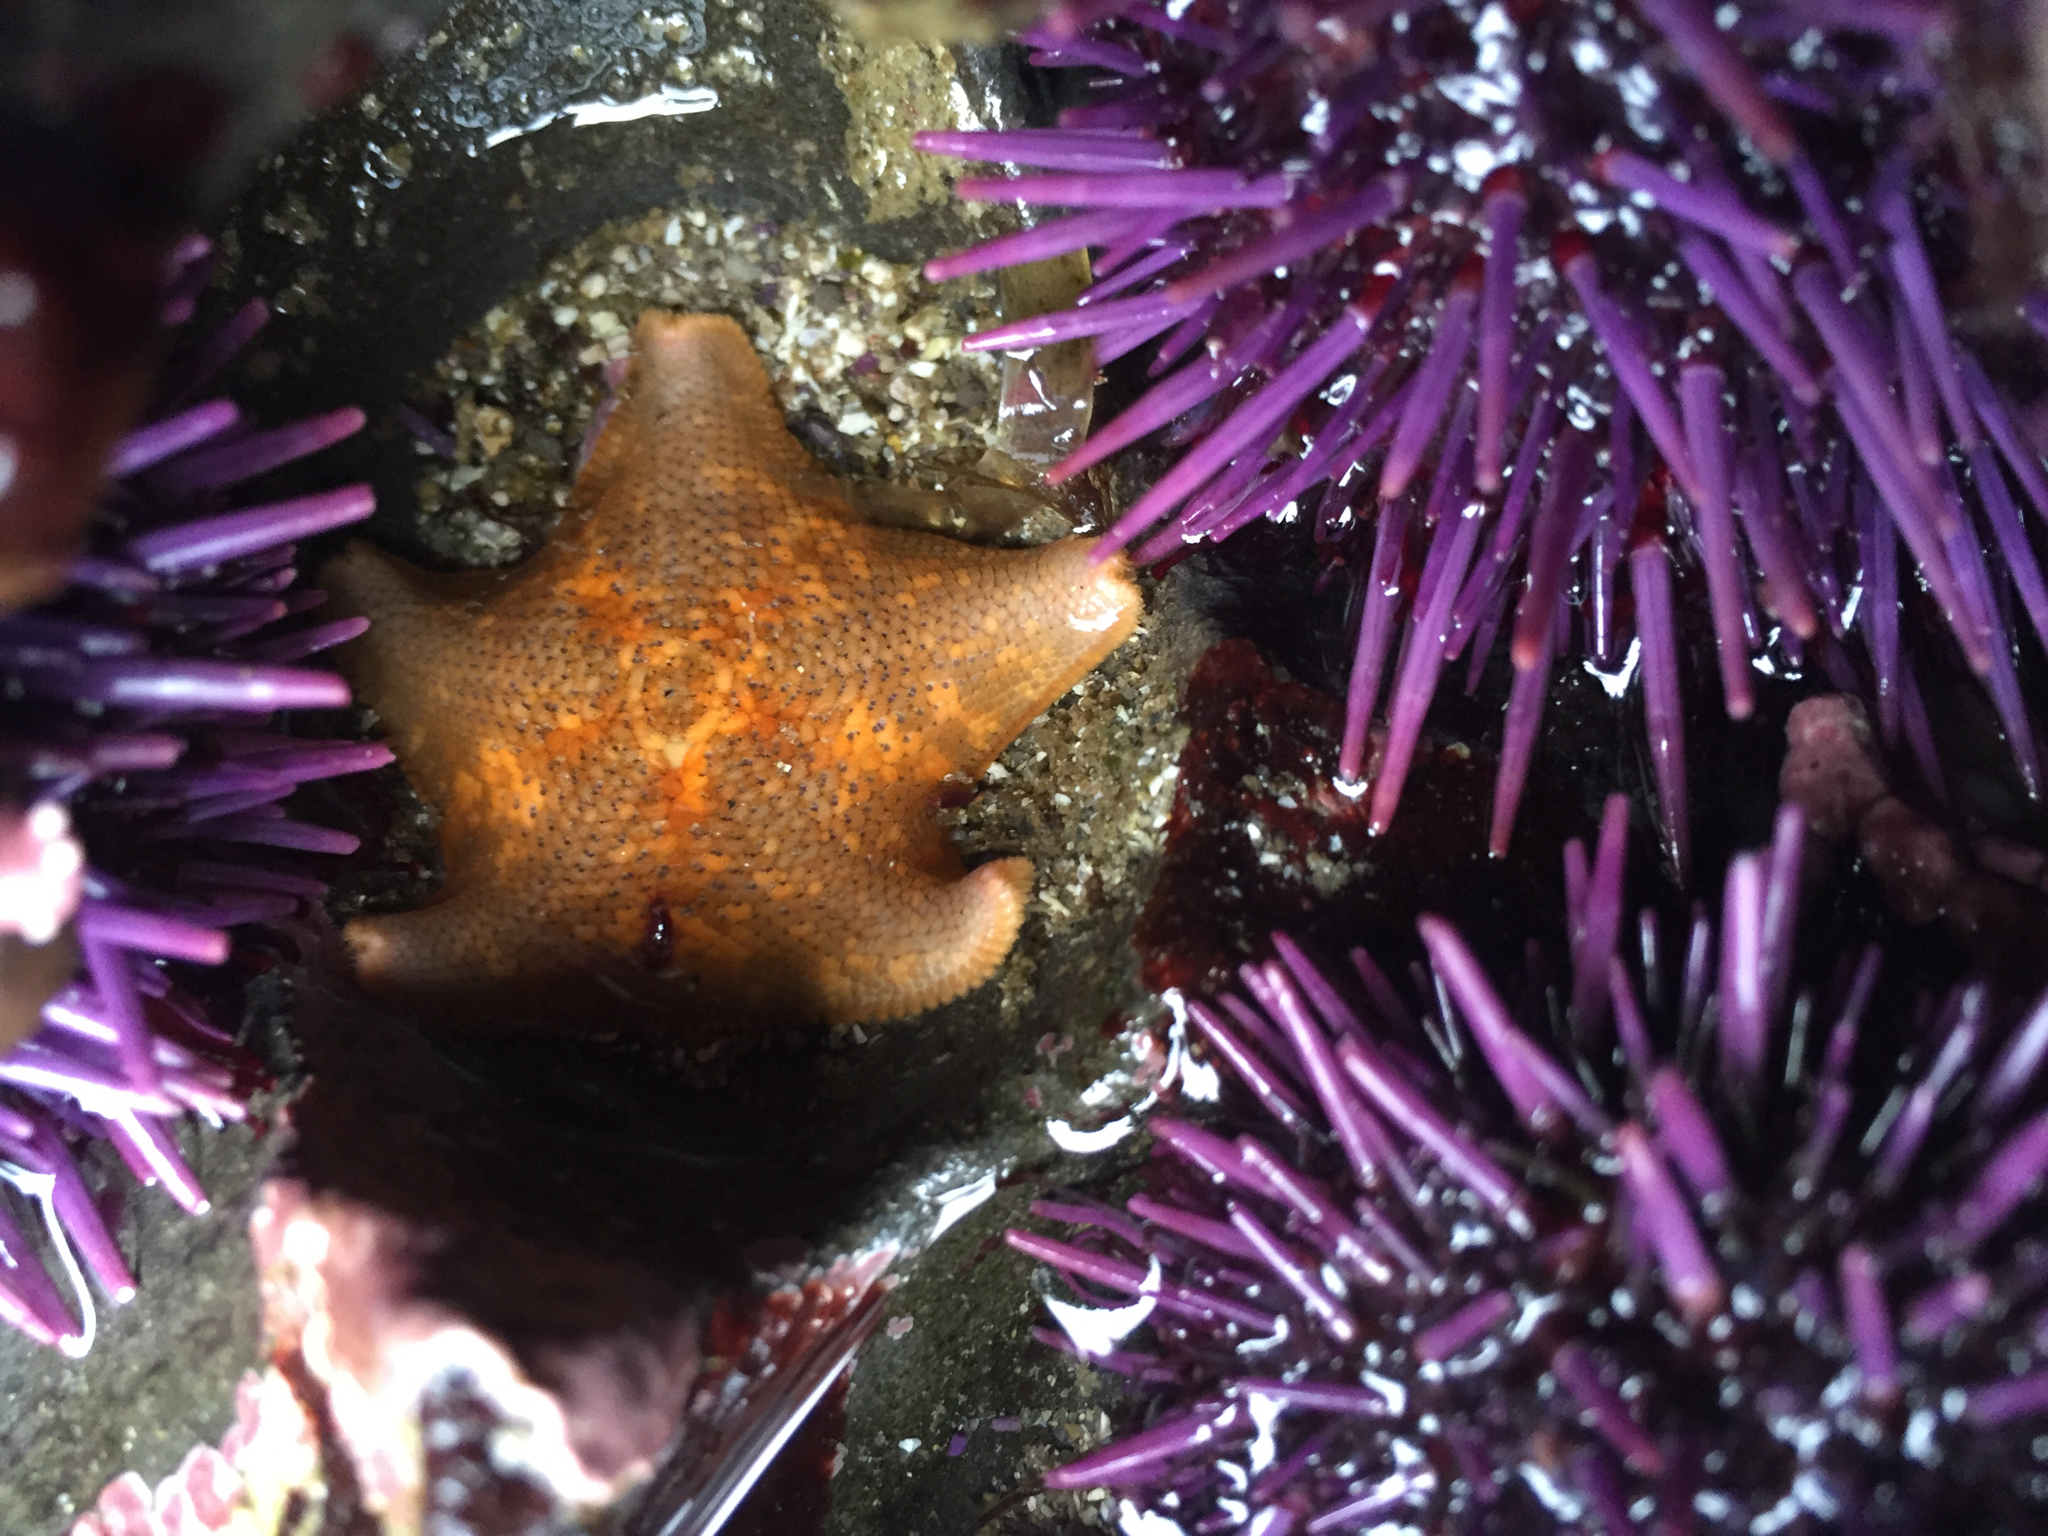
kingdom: Animalia
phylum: Echinodermata
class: Echinoidea
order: Camarodonta
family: Strongylocentrotidae
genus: Strongylocentrotus
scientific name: Strongylocentrotus purpuratus
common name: Purple sea urchin
